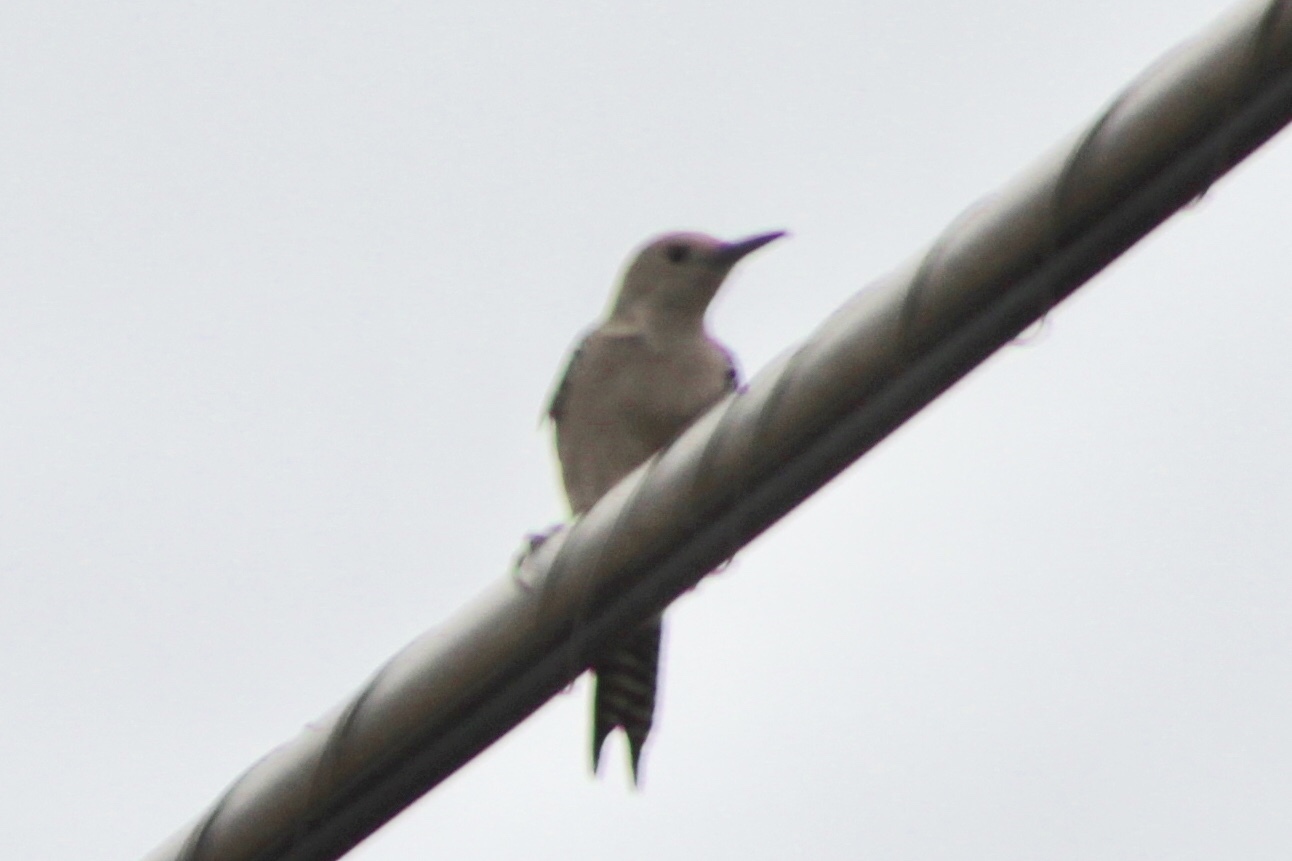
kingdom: Animalia
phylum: Chordata
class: Aves
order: Piciformes
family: Picidae
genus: Melanerpes
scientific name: Melanerpes uropygialis
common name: Gila woodpecker
